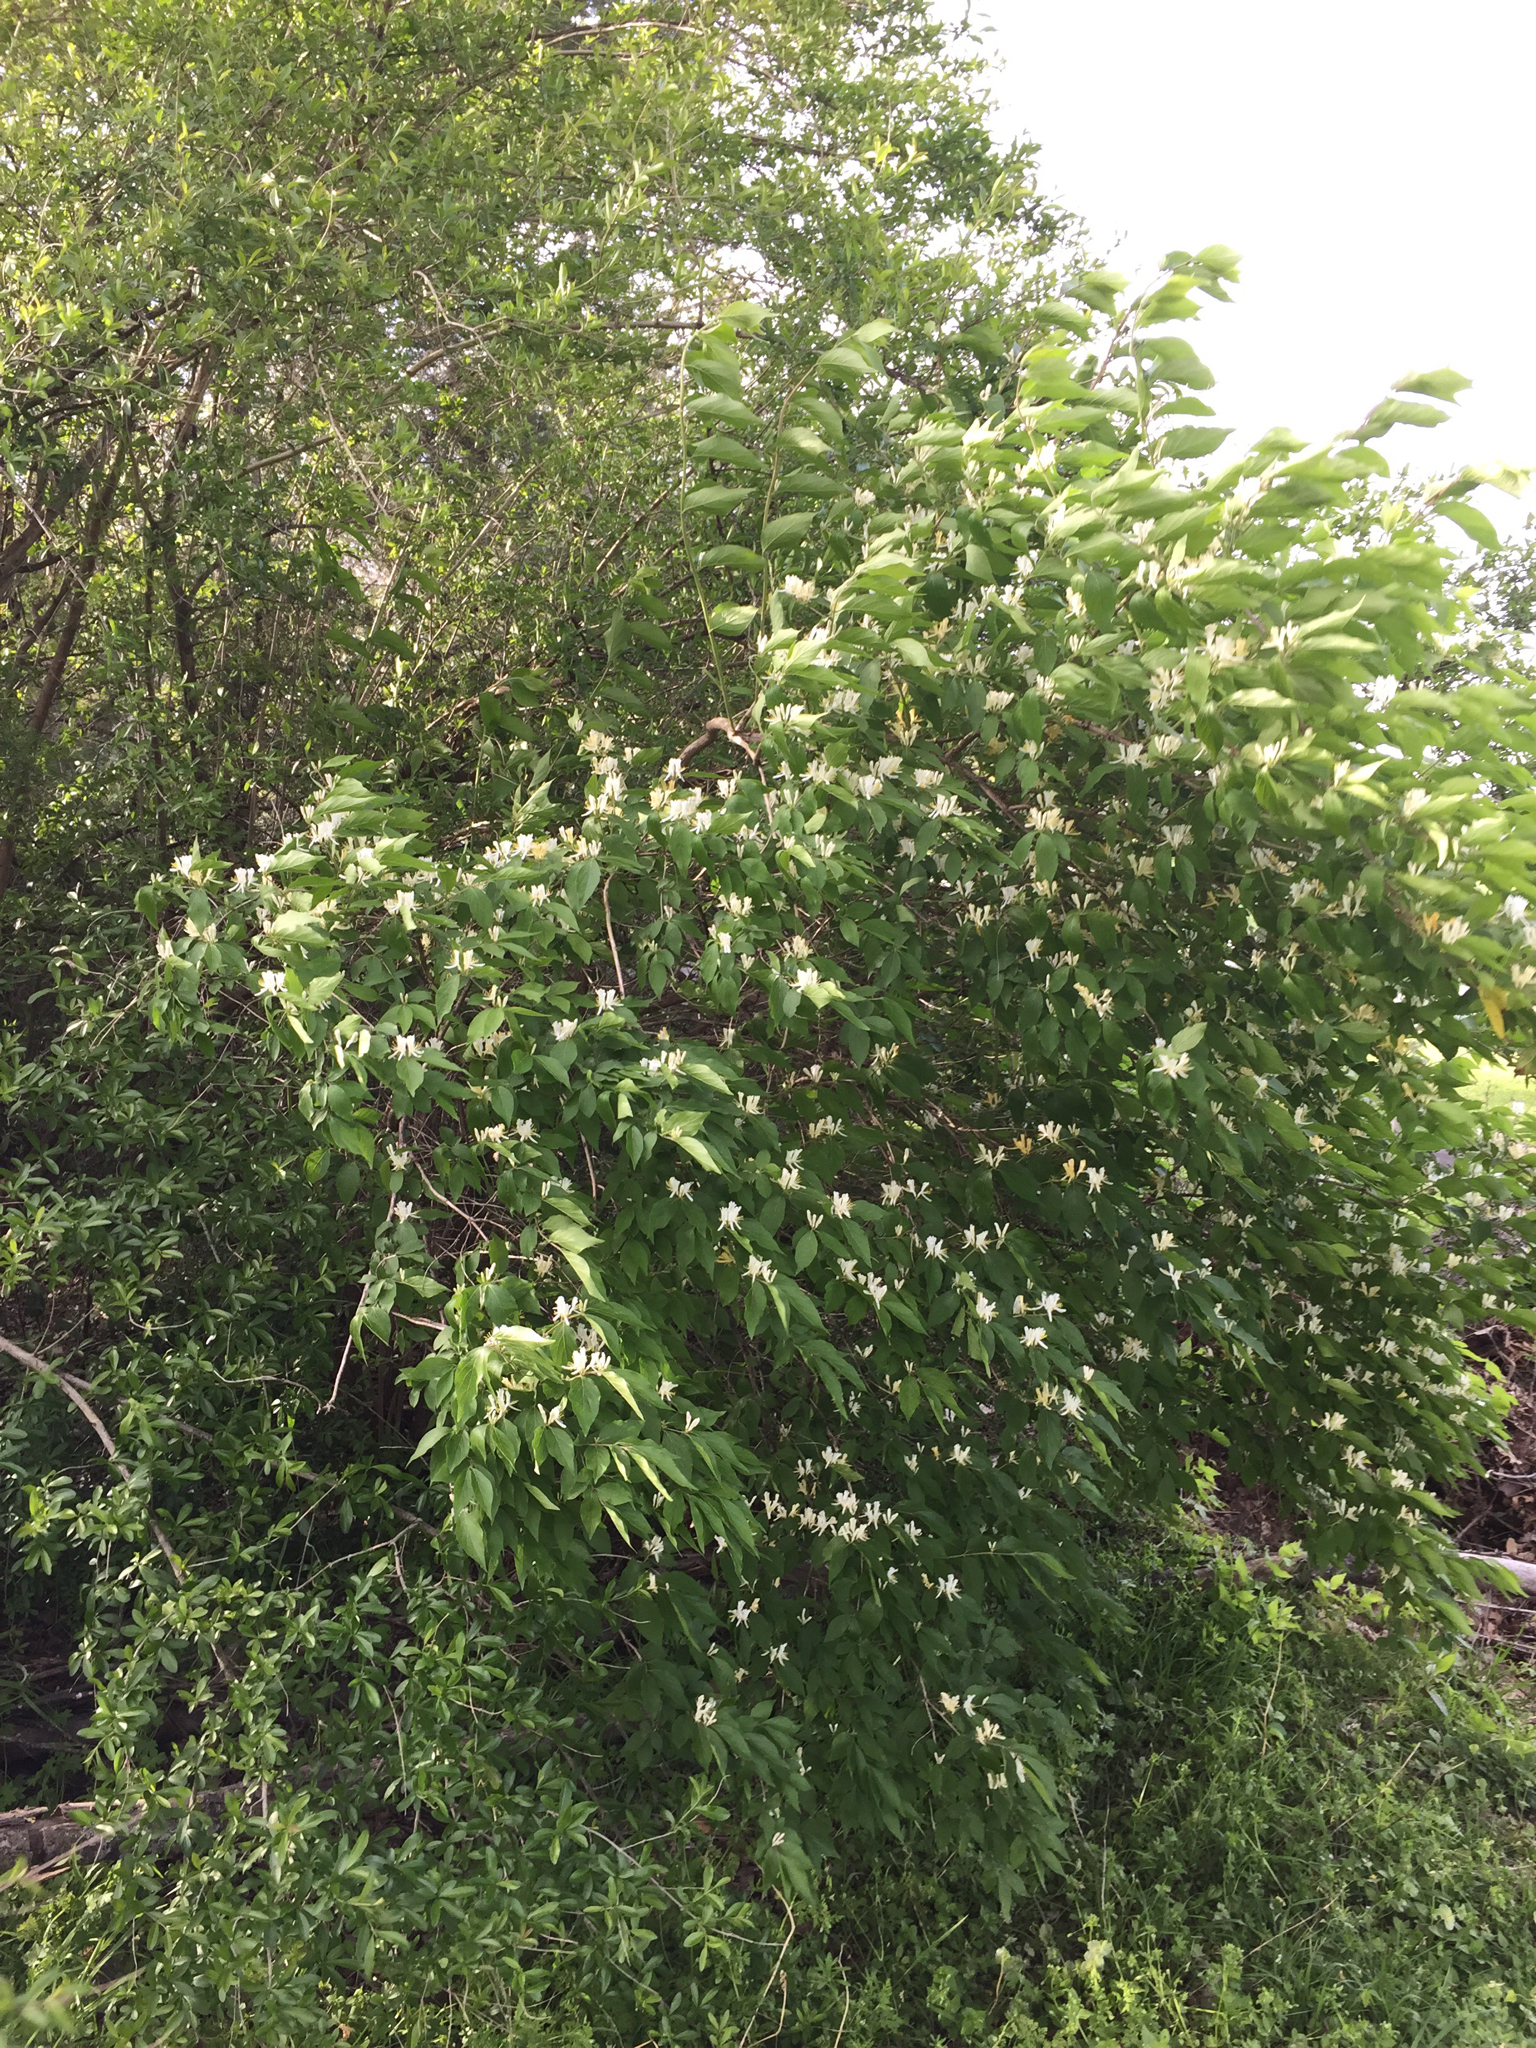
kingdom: Plantae
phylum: Tracheophyta
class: Magnoliopsida
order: Dipsacales
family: Caprifoliaceae
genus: Lonicera
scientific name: Lonicera maackii
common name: Amur honeysuckle
